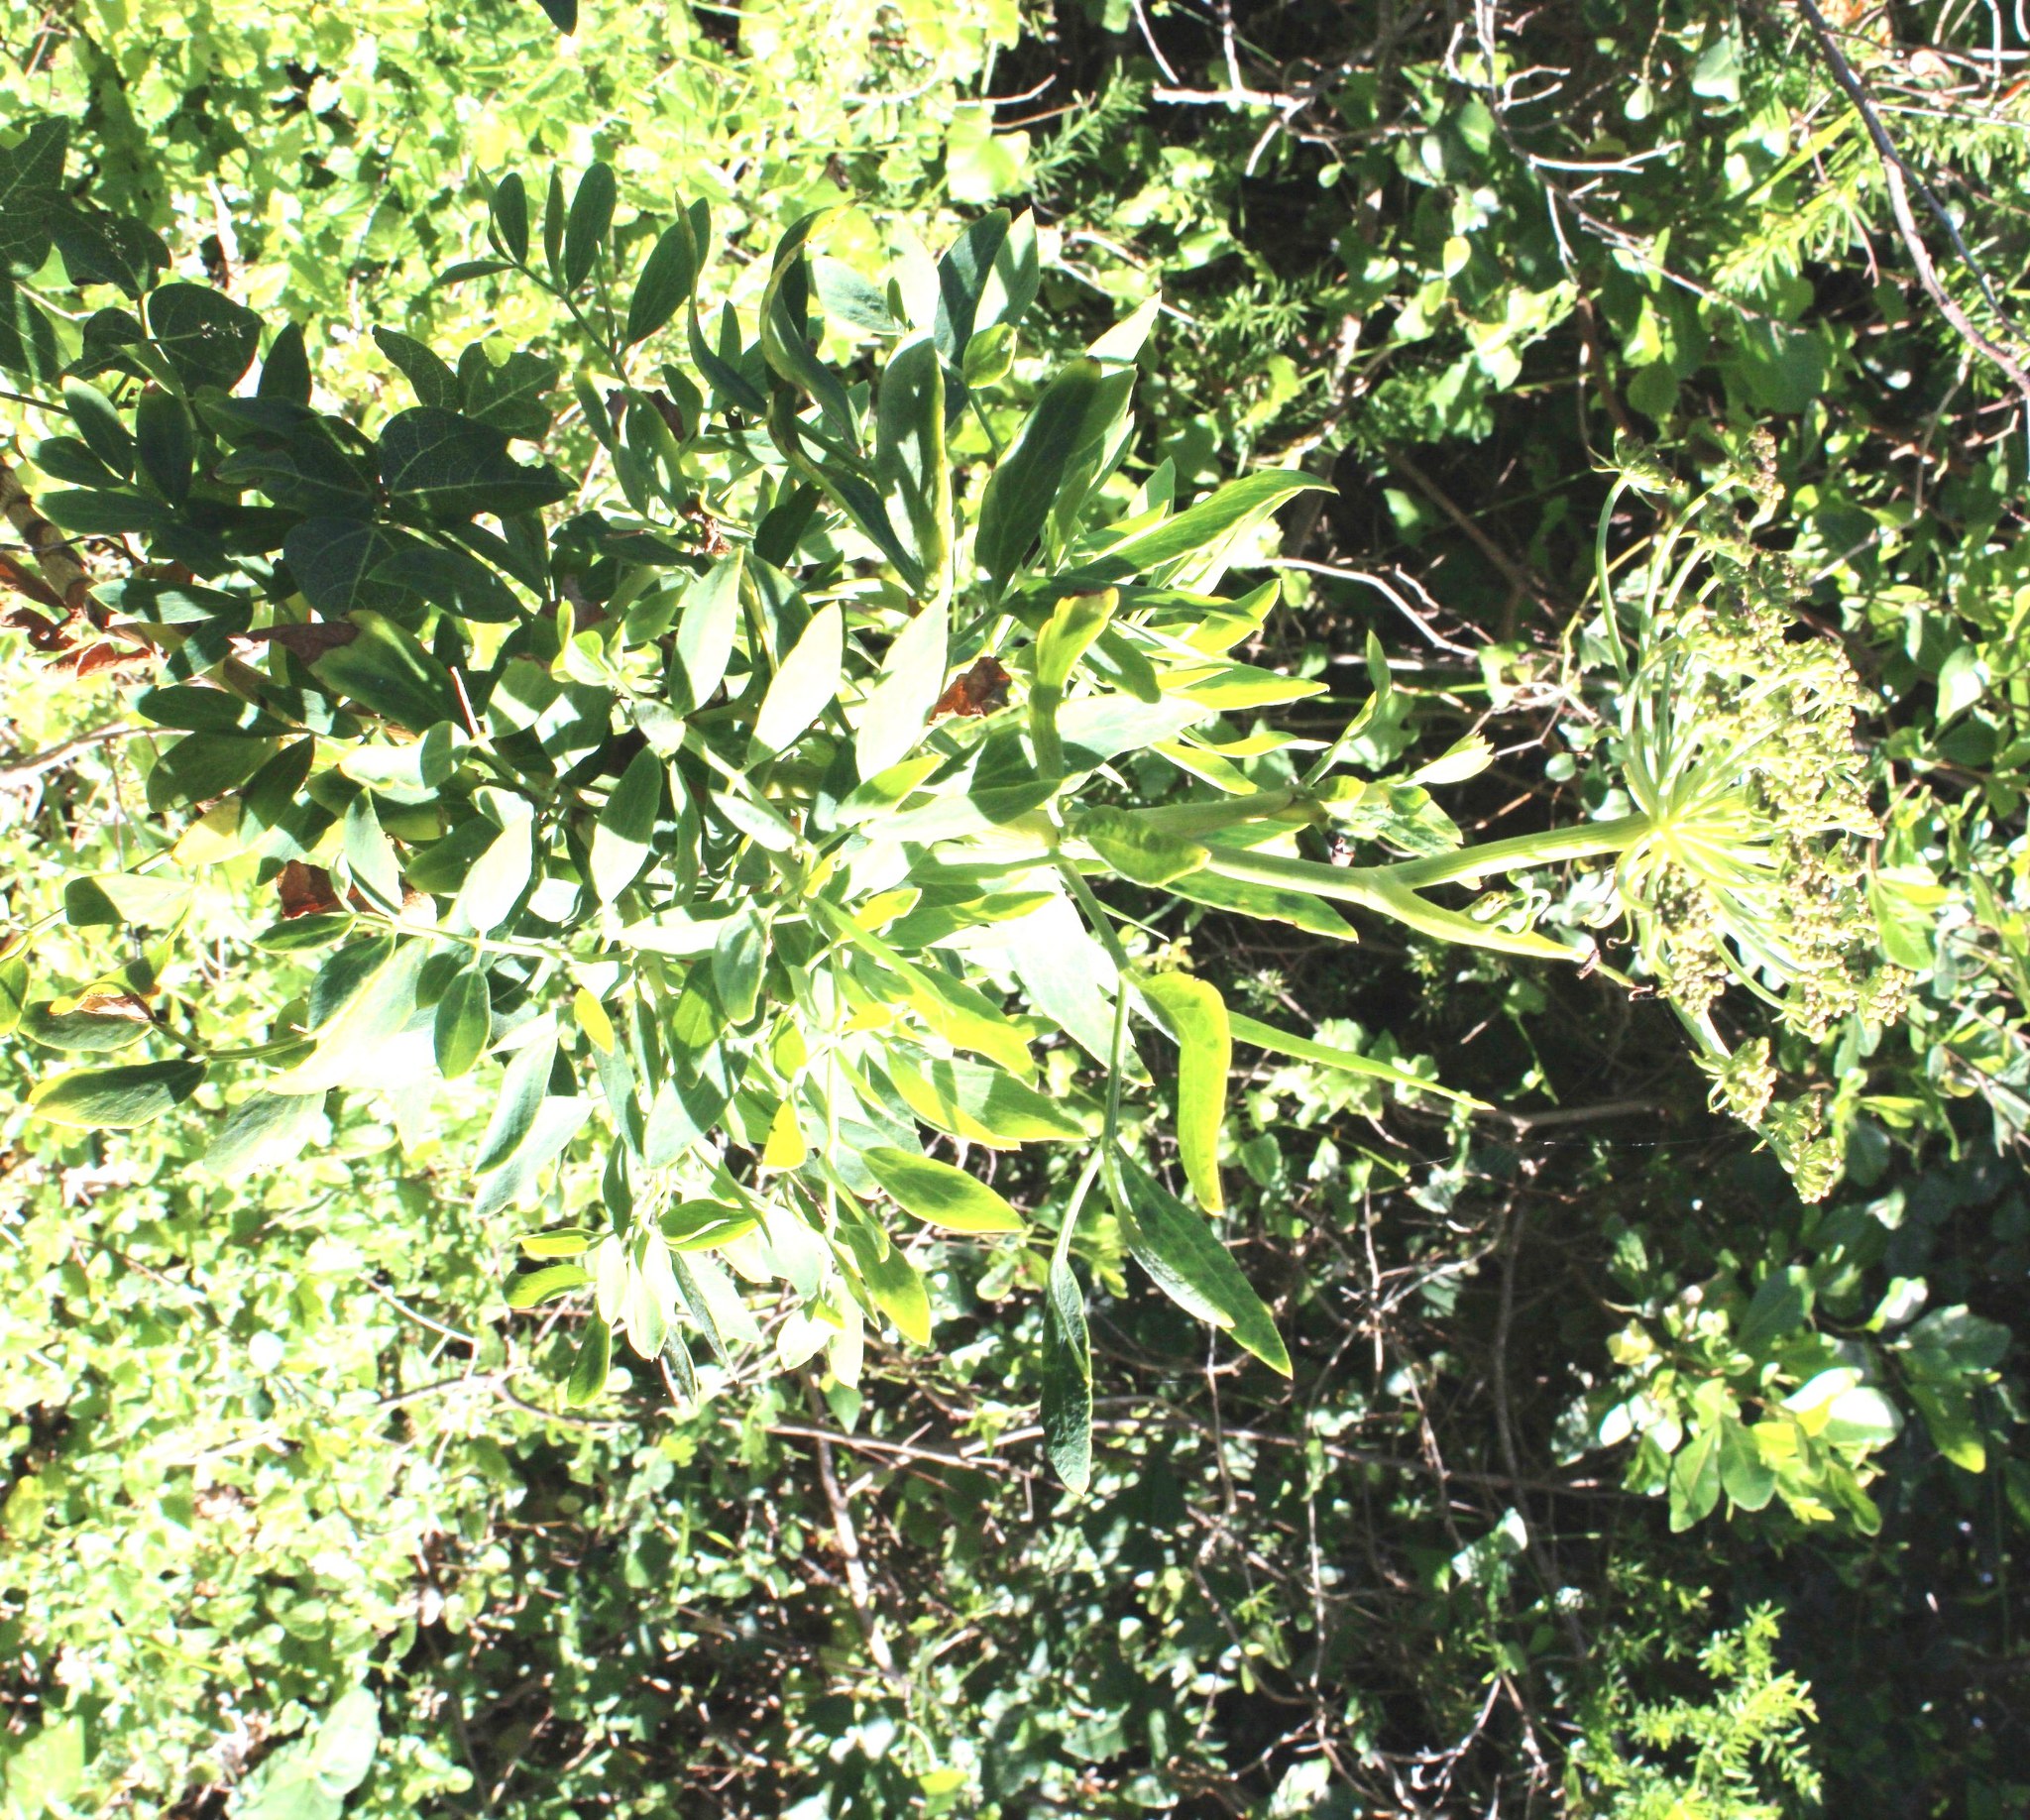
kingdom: Plantae
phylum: Tracheophyta
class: Magnoliopsida
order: Apiales
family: Apiaceae
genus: Notobubon
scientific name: Notobubon laevigatum
